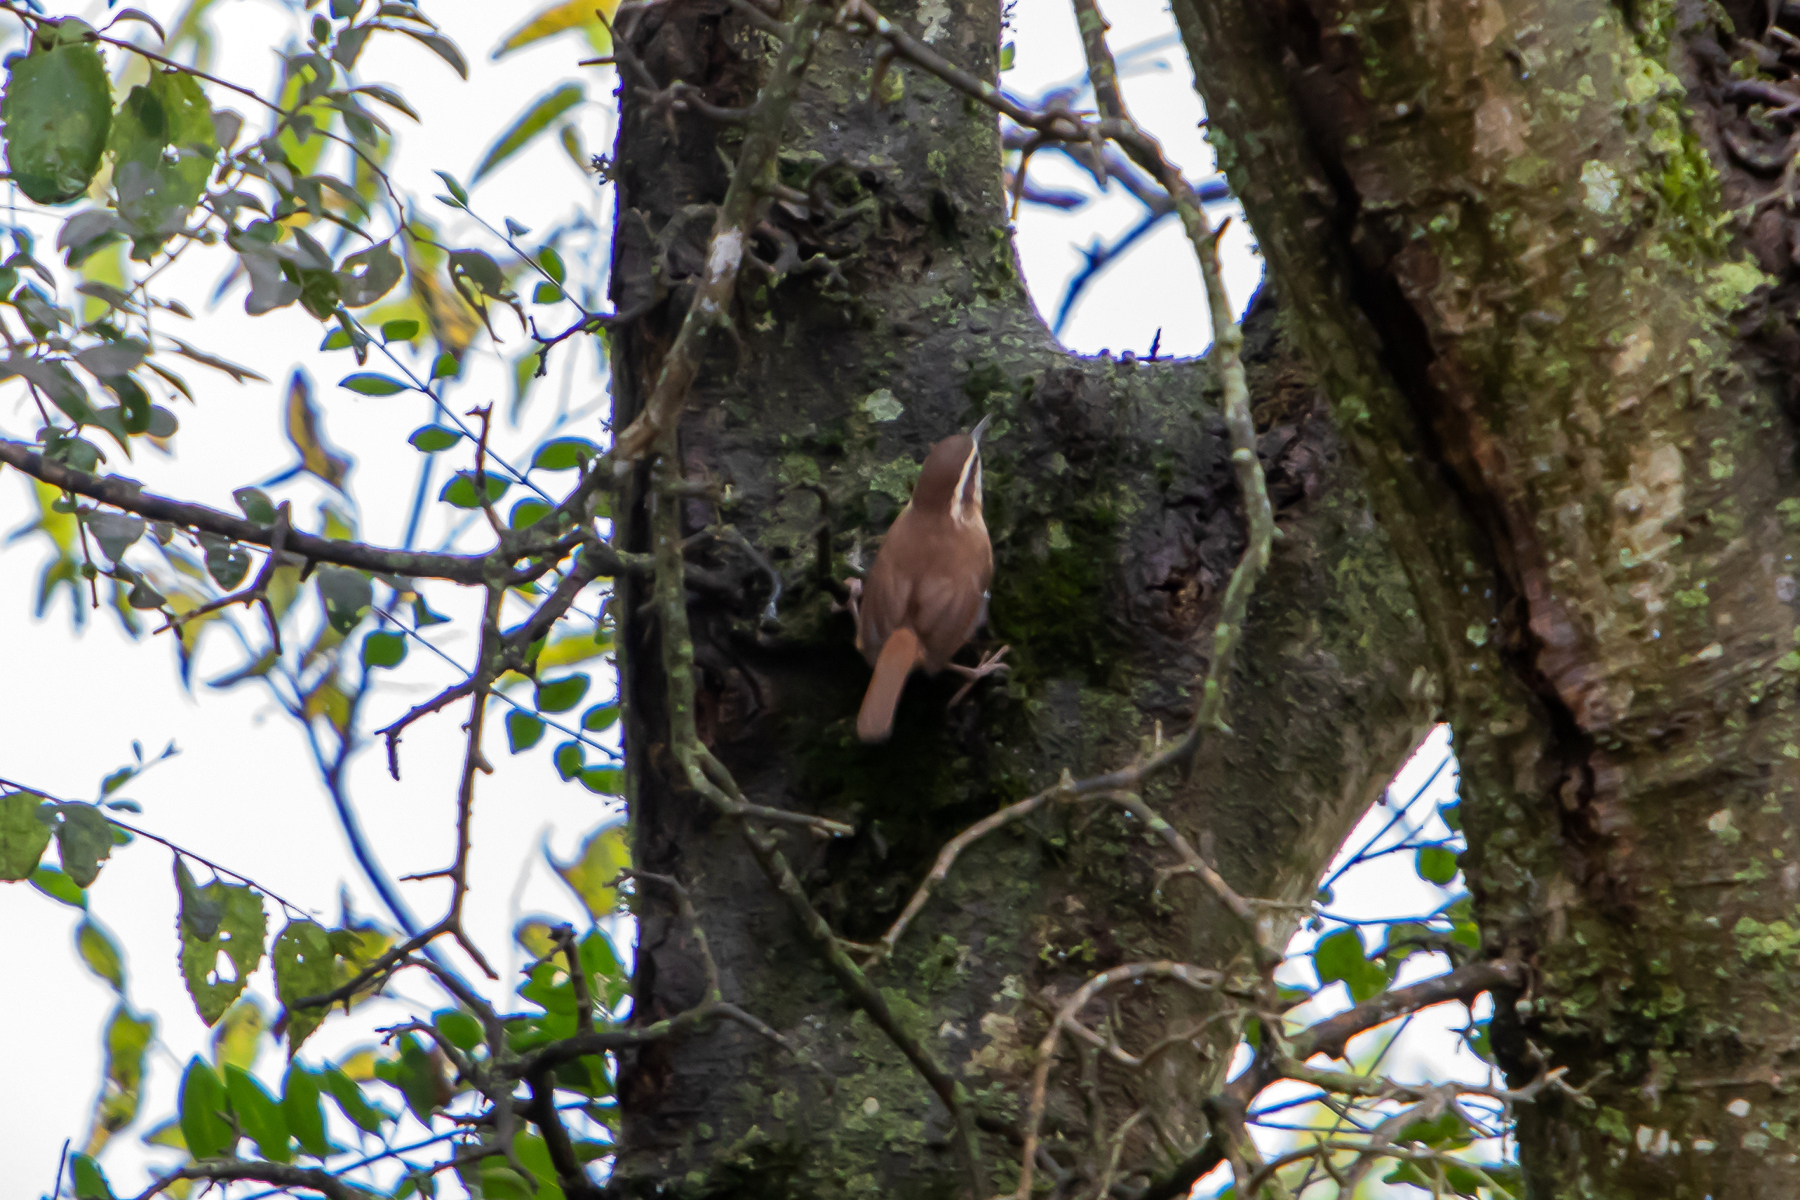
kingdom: Animalia
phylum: Chordata
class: Aves
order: Passeriformes
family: Troglodytidae
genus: Thryothorus
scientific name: Thryothorus ludovicianus
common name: Carolina wren
